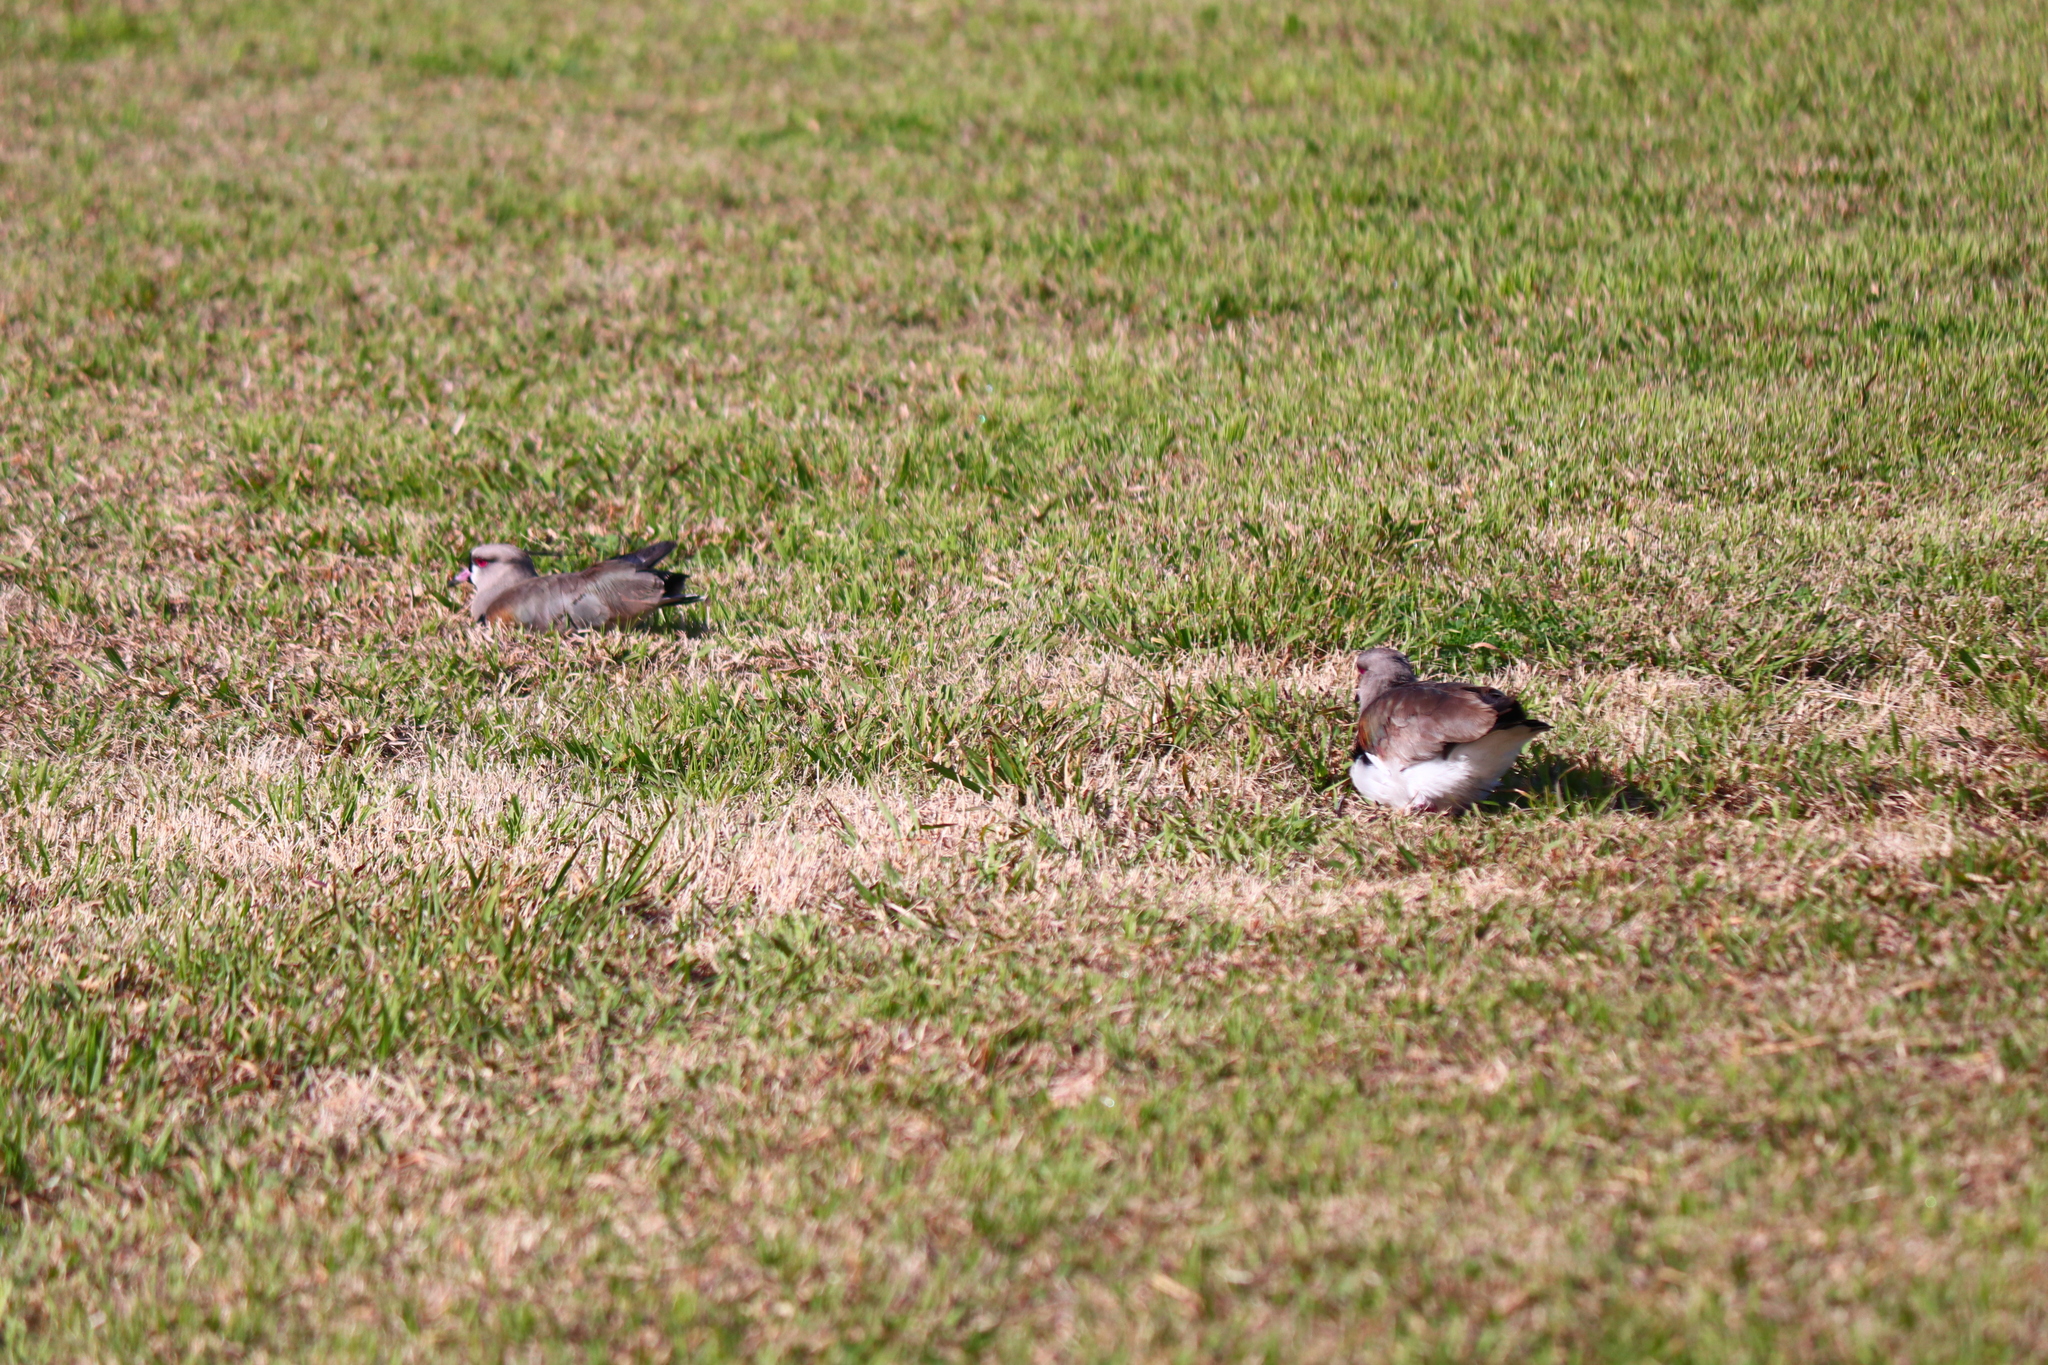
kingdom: Animalia
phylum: Chordata
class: Aves
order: Charadriiformes
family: Charadriidae
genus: Vanellus
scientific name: Vanellus chilensis
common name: Southern lapwing
